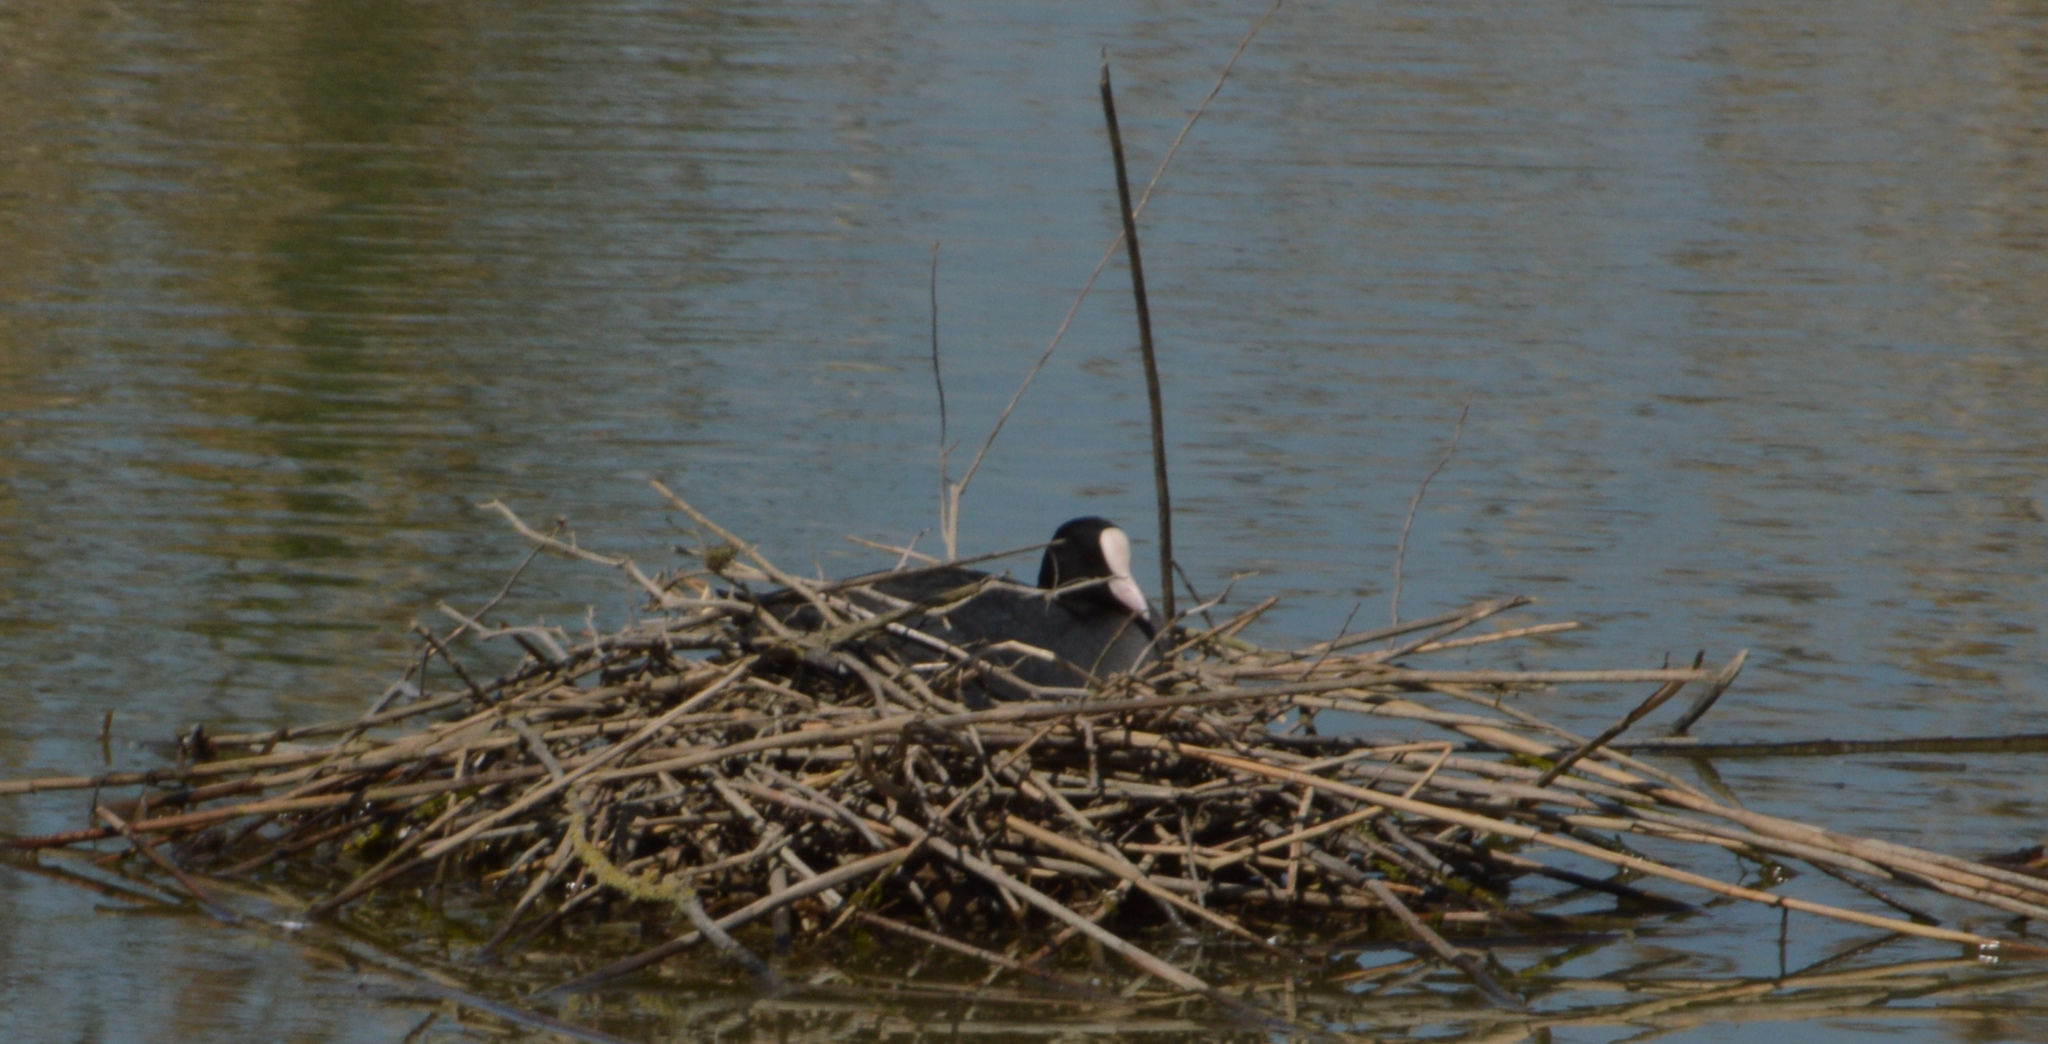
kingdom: Animalia
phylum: Chordata
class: Aves
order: Gruiformes
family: Rallidae
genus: Fulica
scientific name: Fulica atra
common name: Eurasian coot
